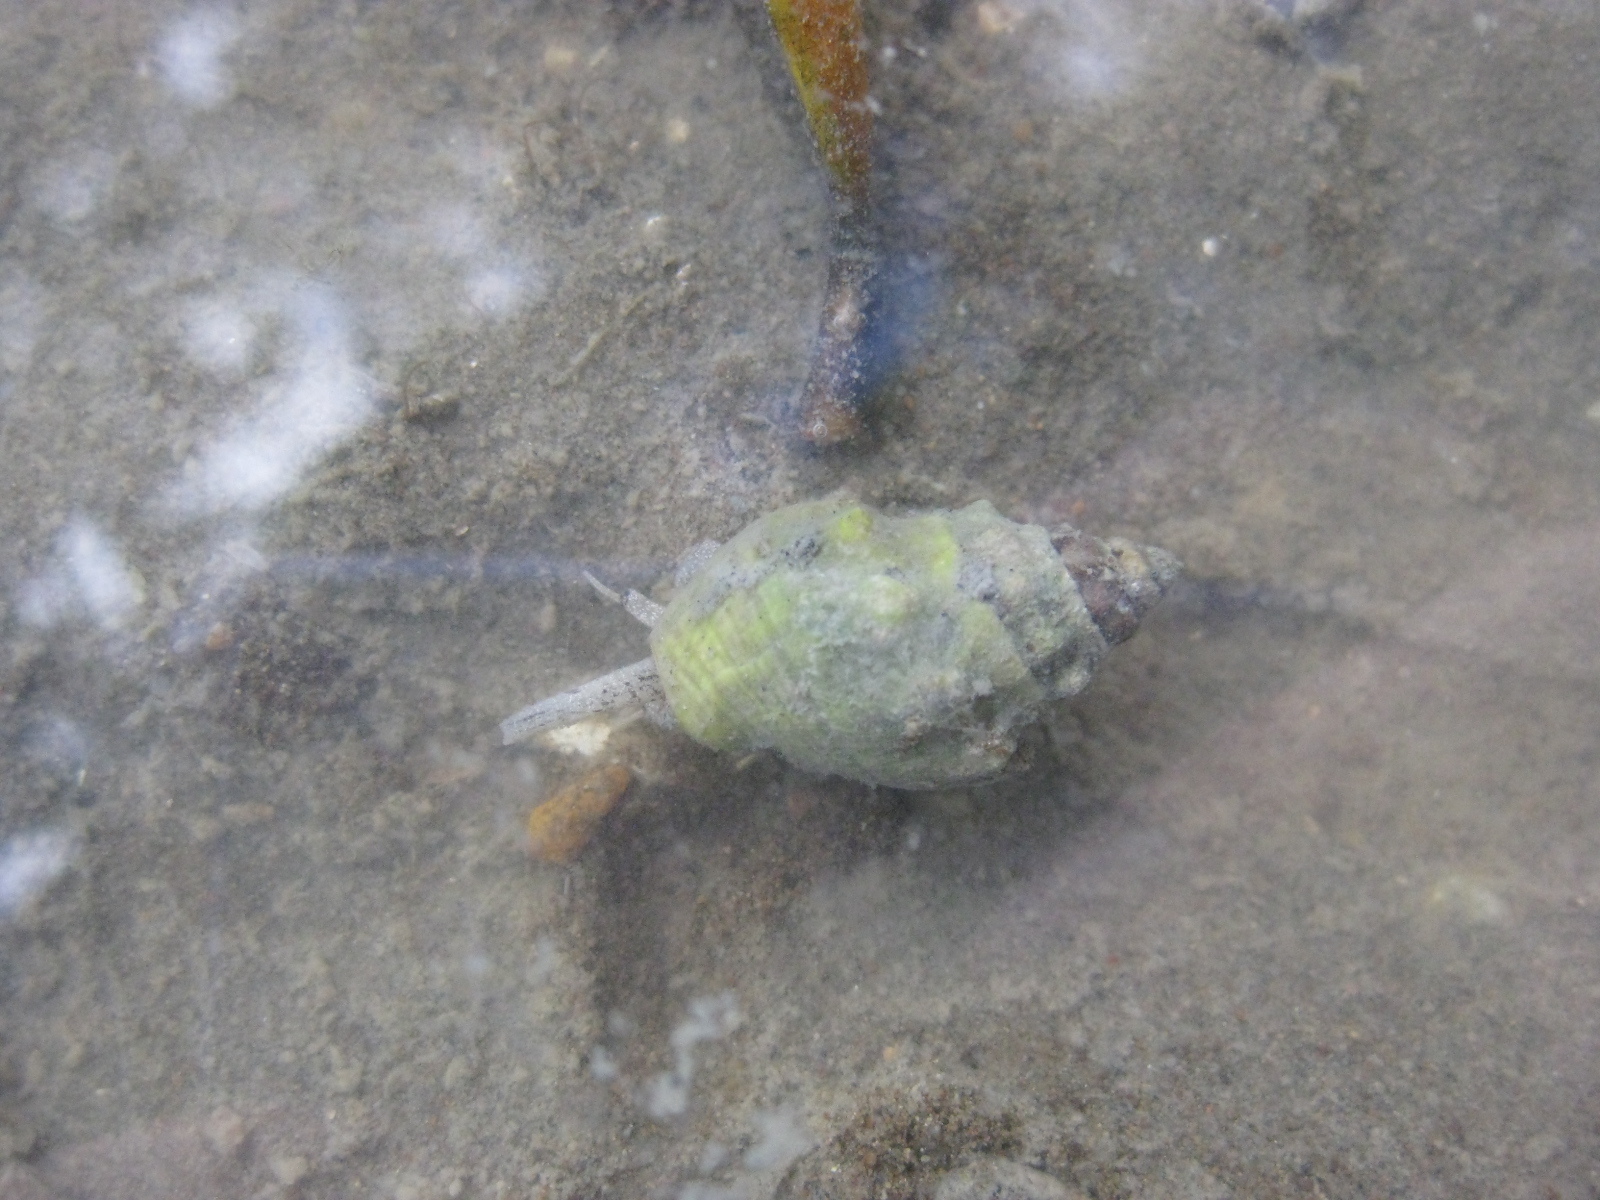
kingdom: Animalia
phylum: Mollusca
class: Gastropoda
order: Neogastropoda
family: Cominellidae
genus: Cominella
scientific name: Cominella glandiformis
